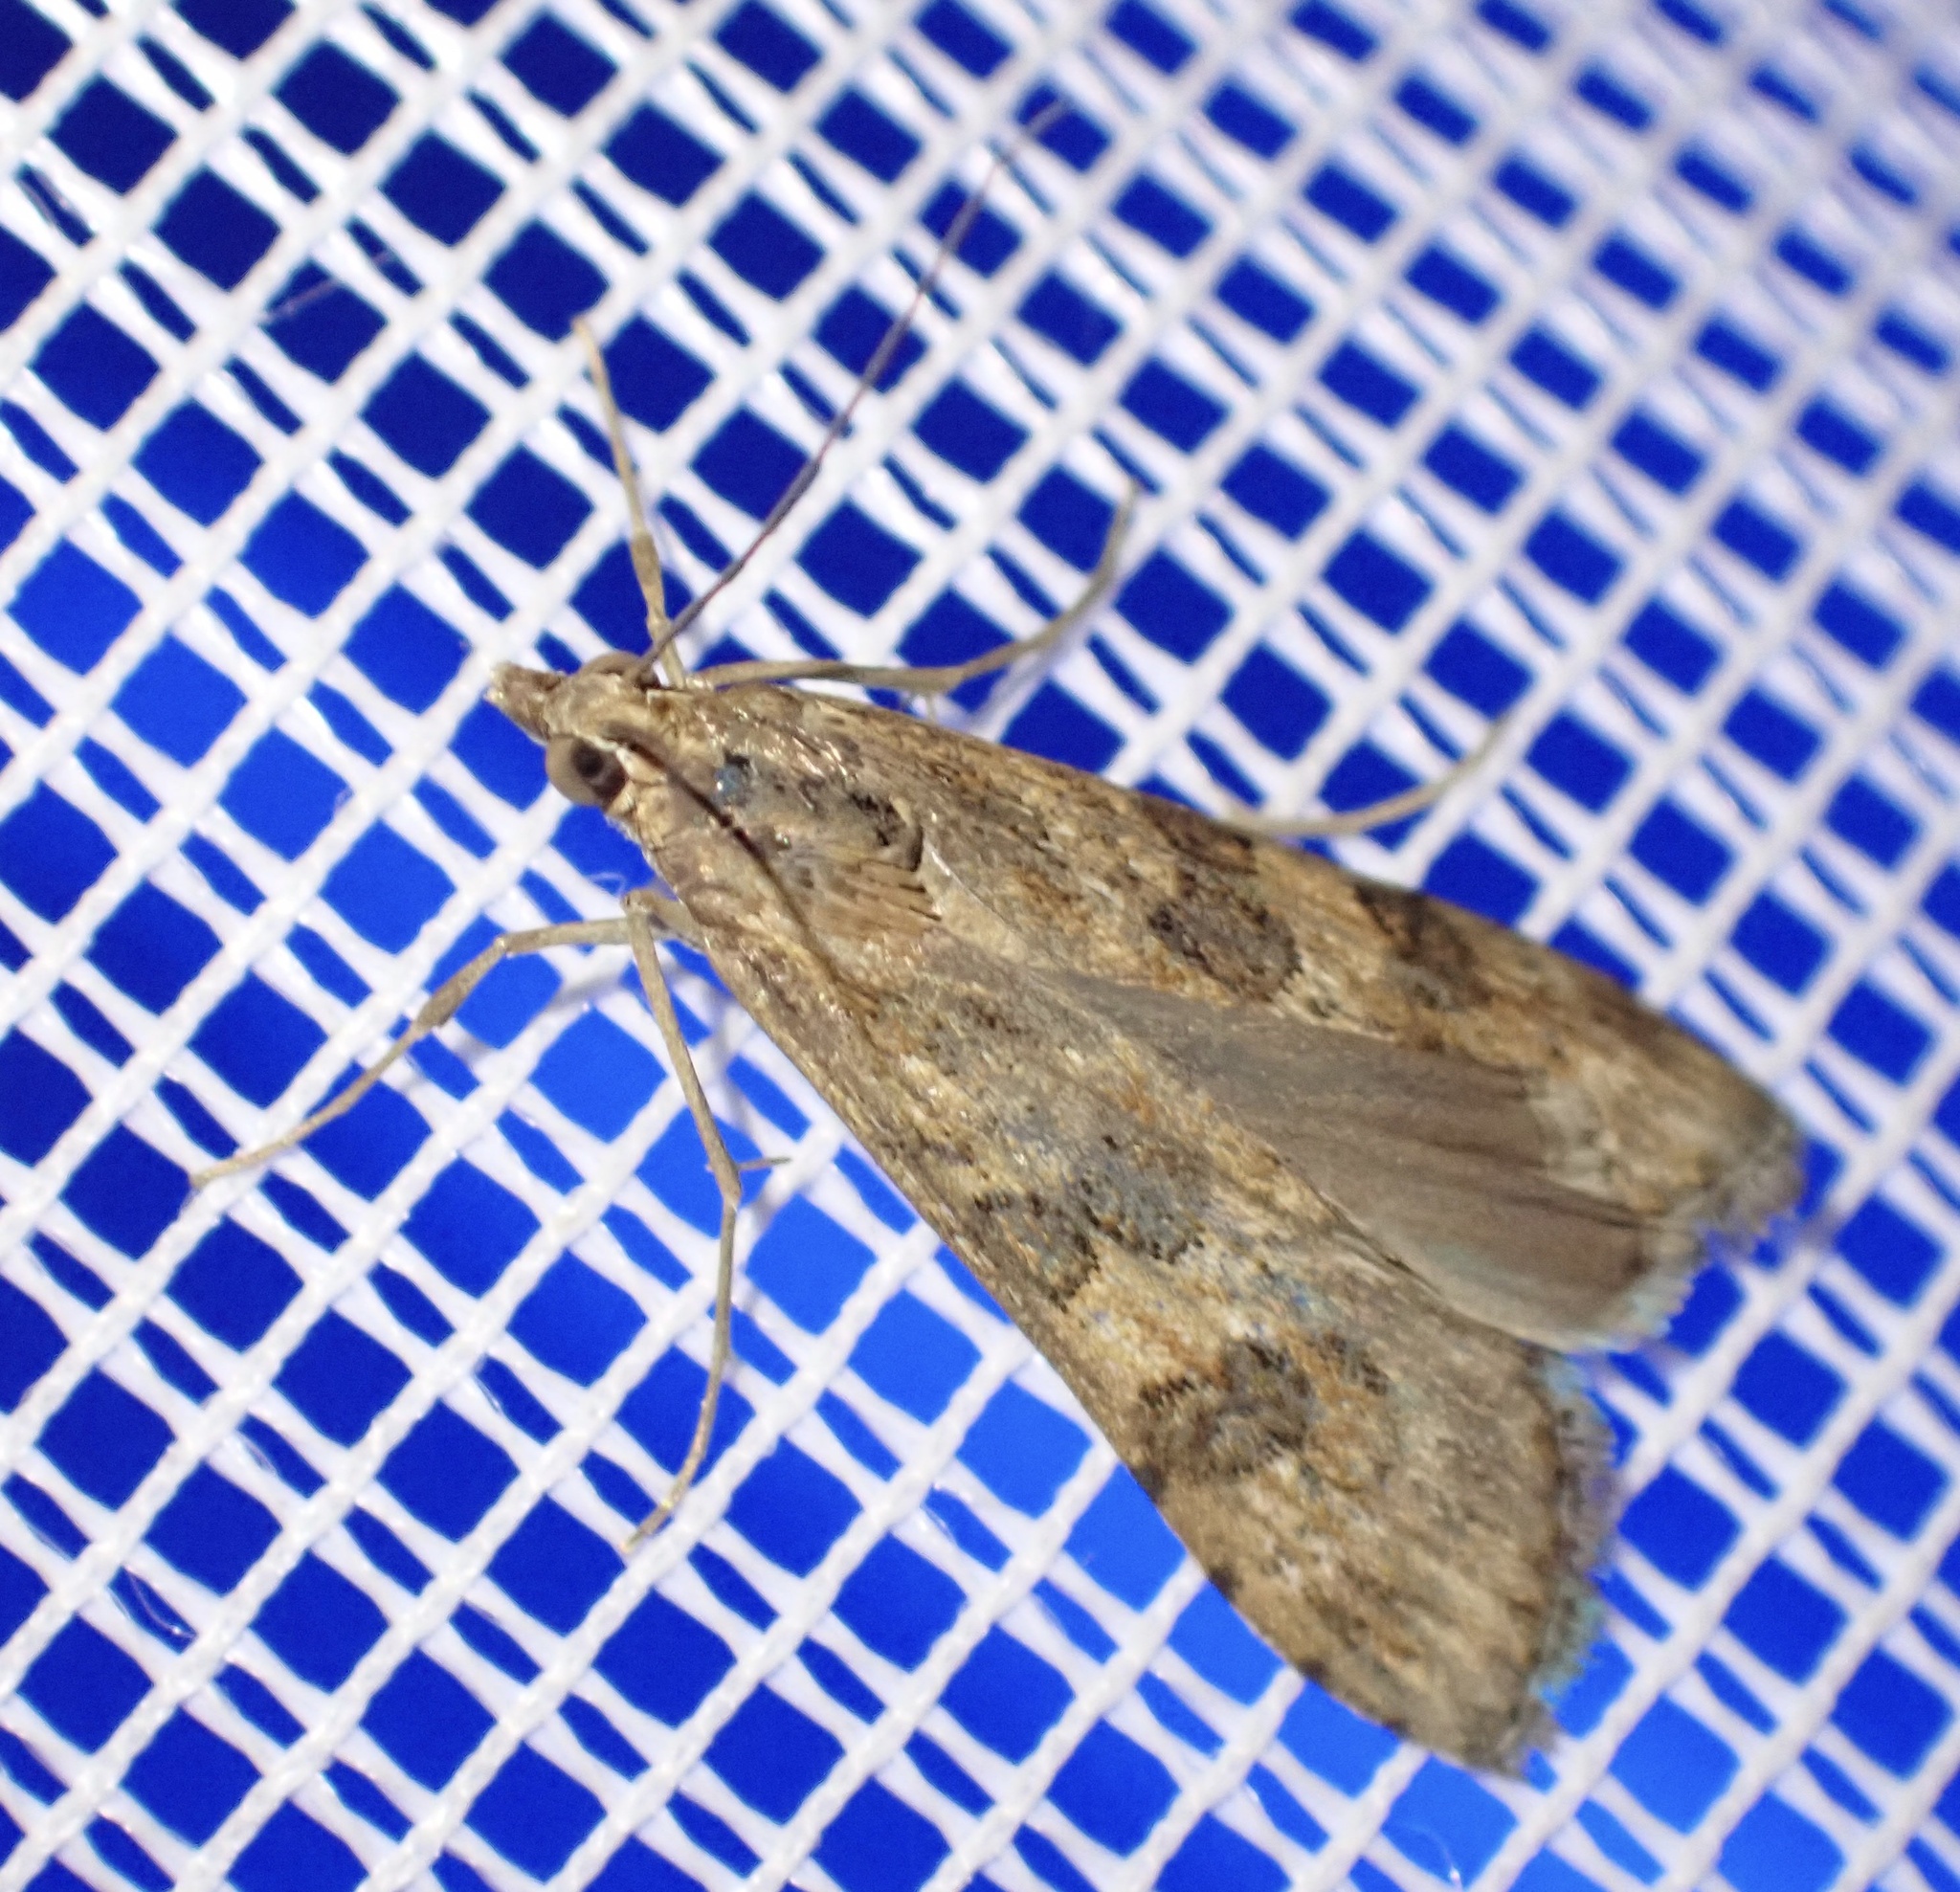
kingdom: Animalia
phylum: Arthropoda
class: Insecta
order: Lepidoptera
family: Crambidae
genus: Nomophila
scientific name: Nomophila noctuella
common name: Rush veneer
